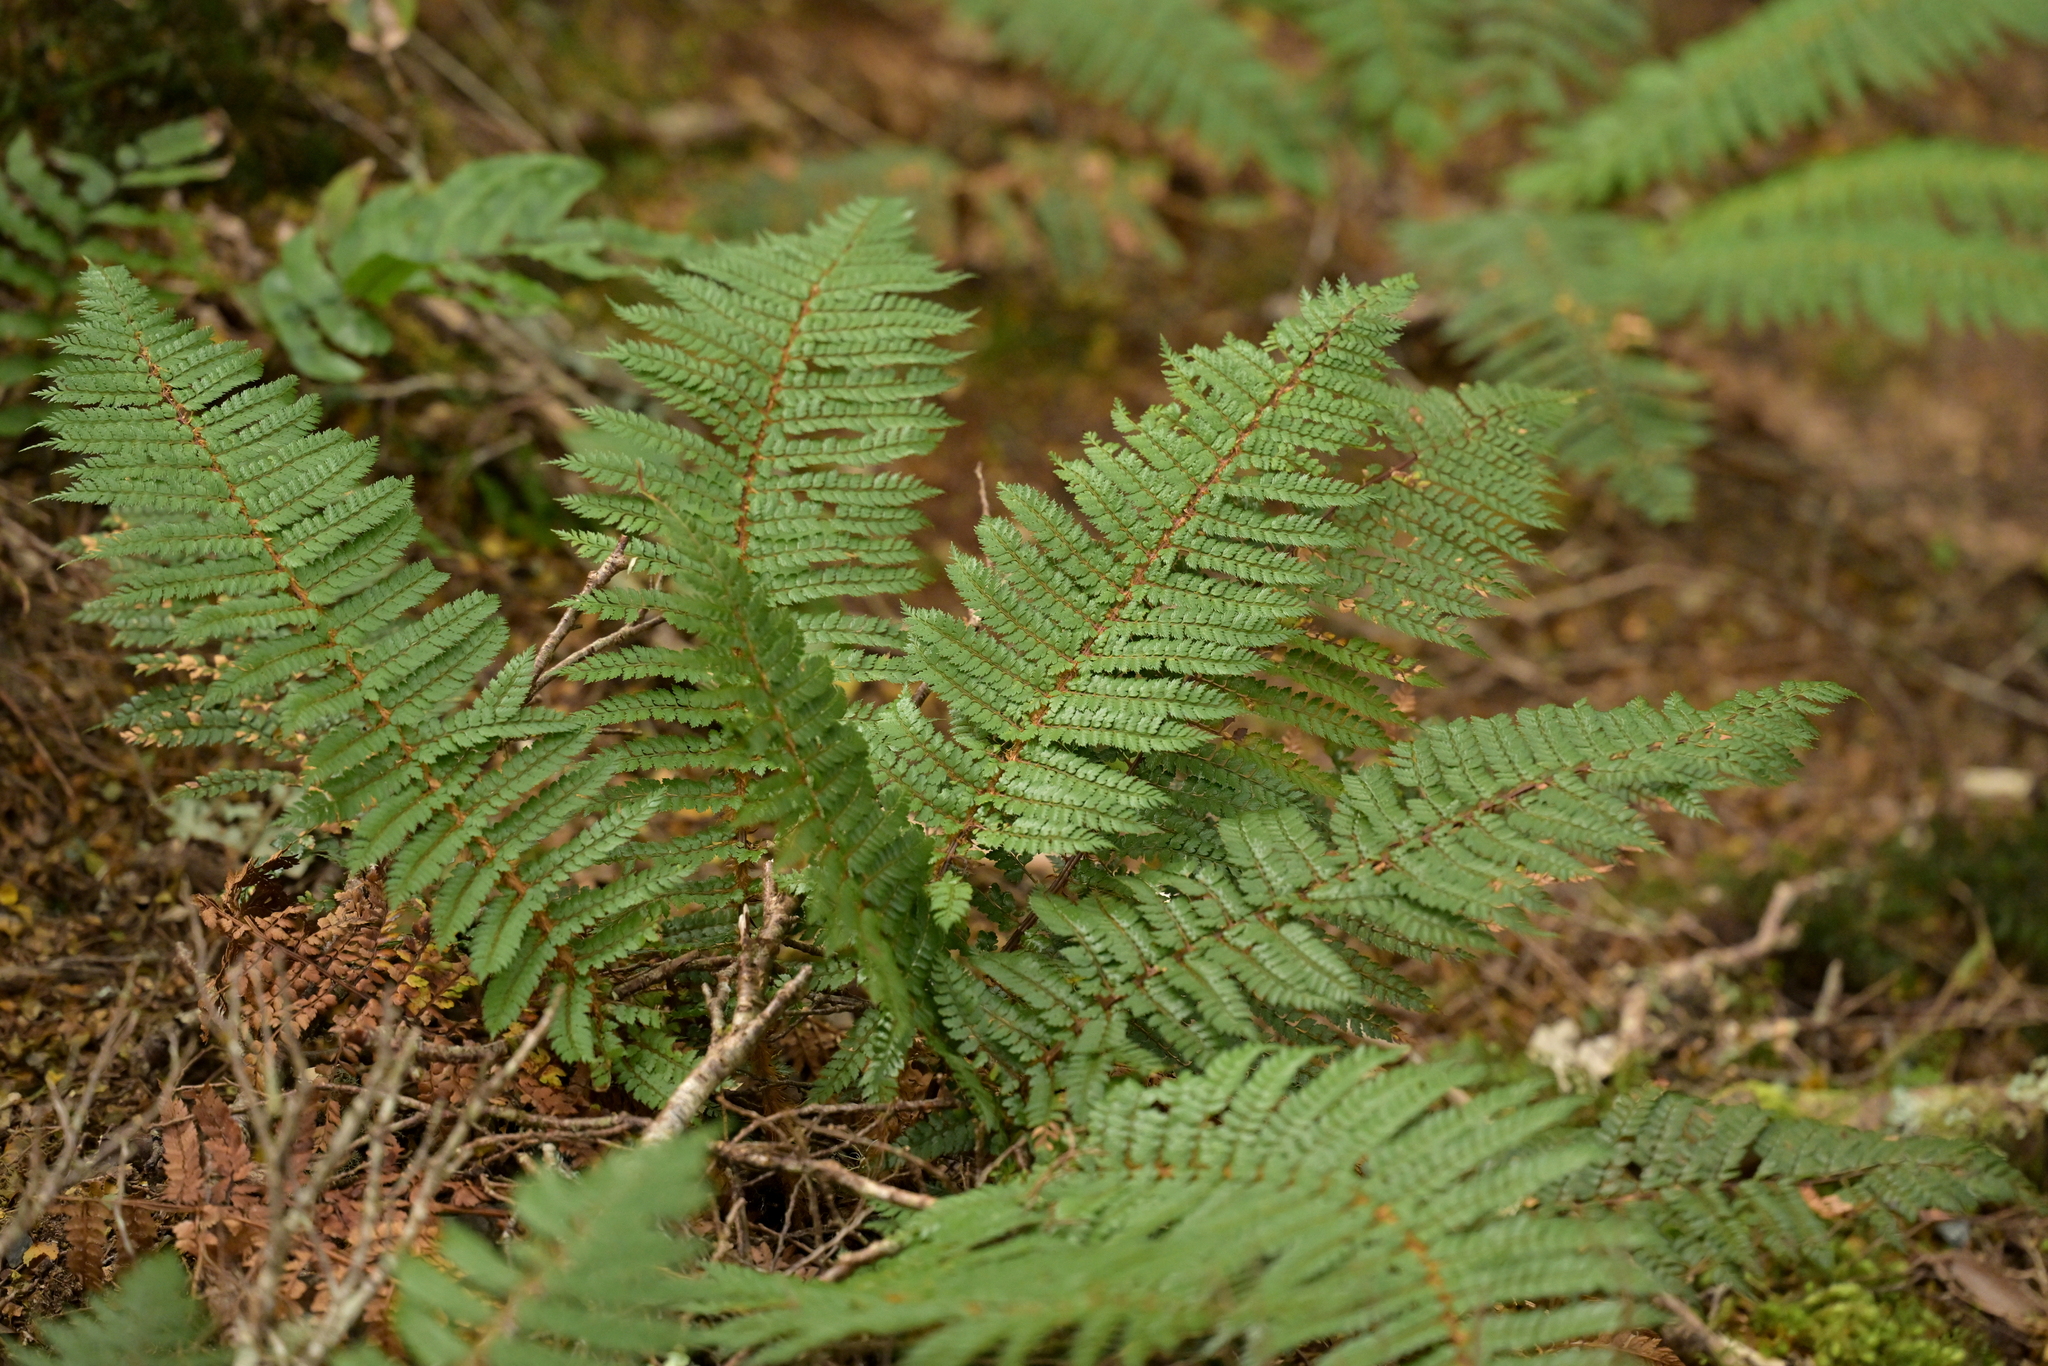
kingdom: Plantae
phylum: Tracheophyta
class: Polypodiopsida
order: Polypodiales
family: Dryopteridaceae
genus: Polystichum
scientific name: Polystichum vestitum
